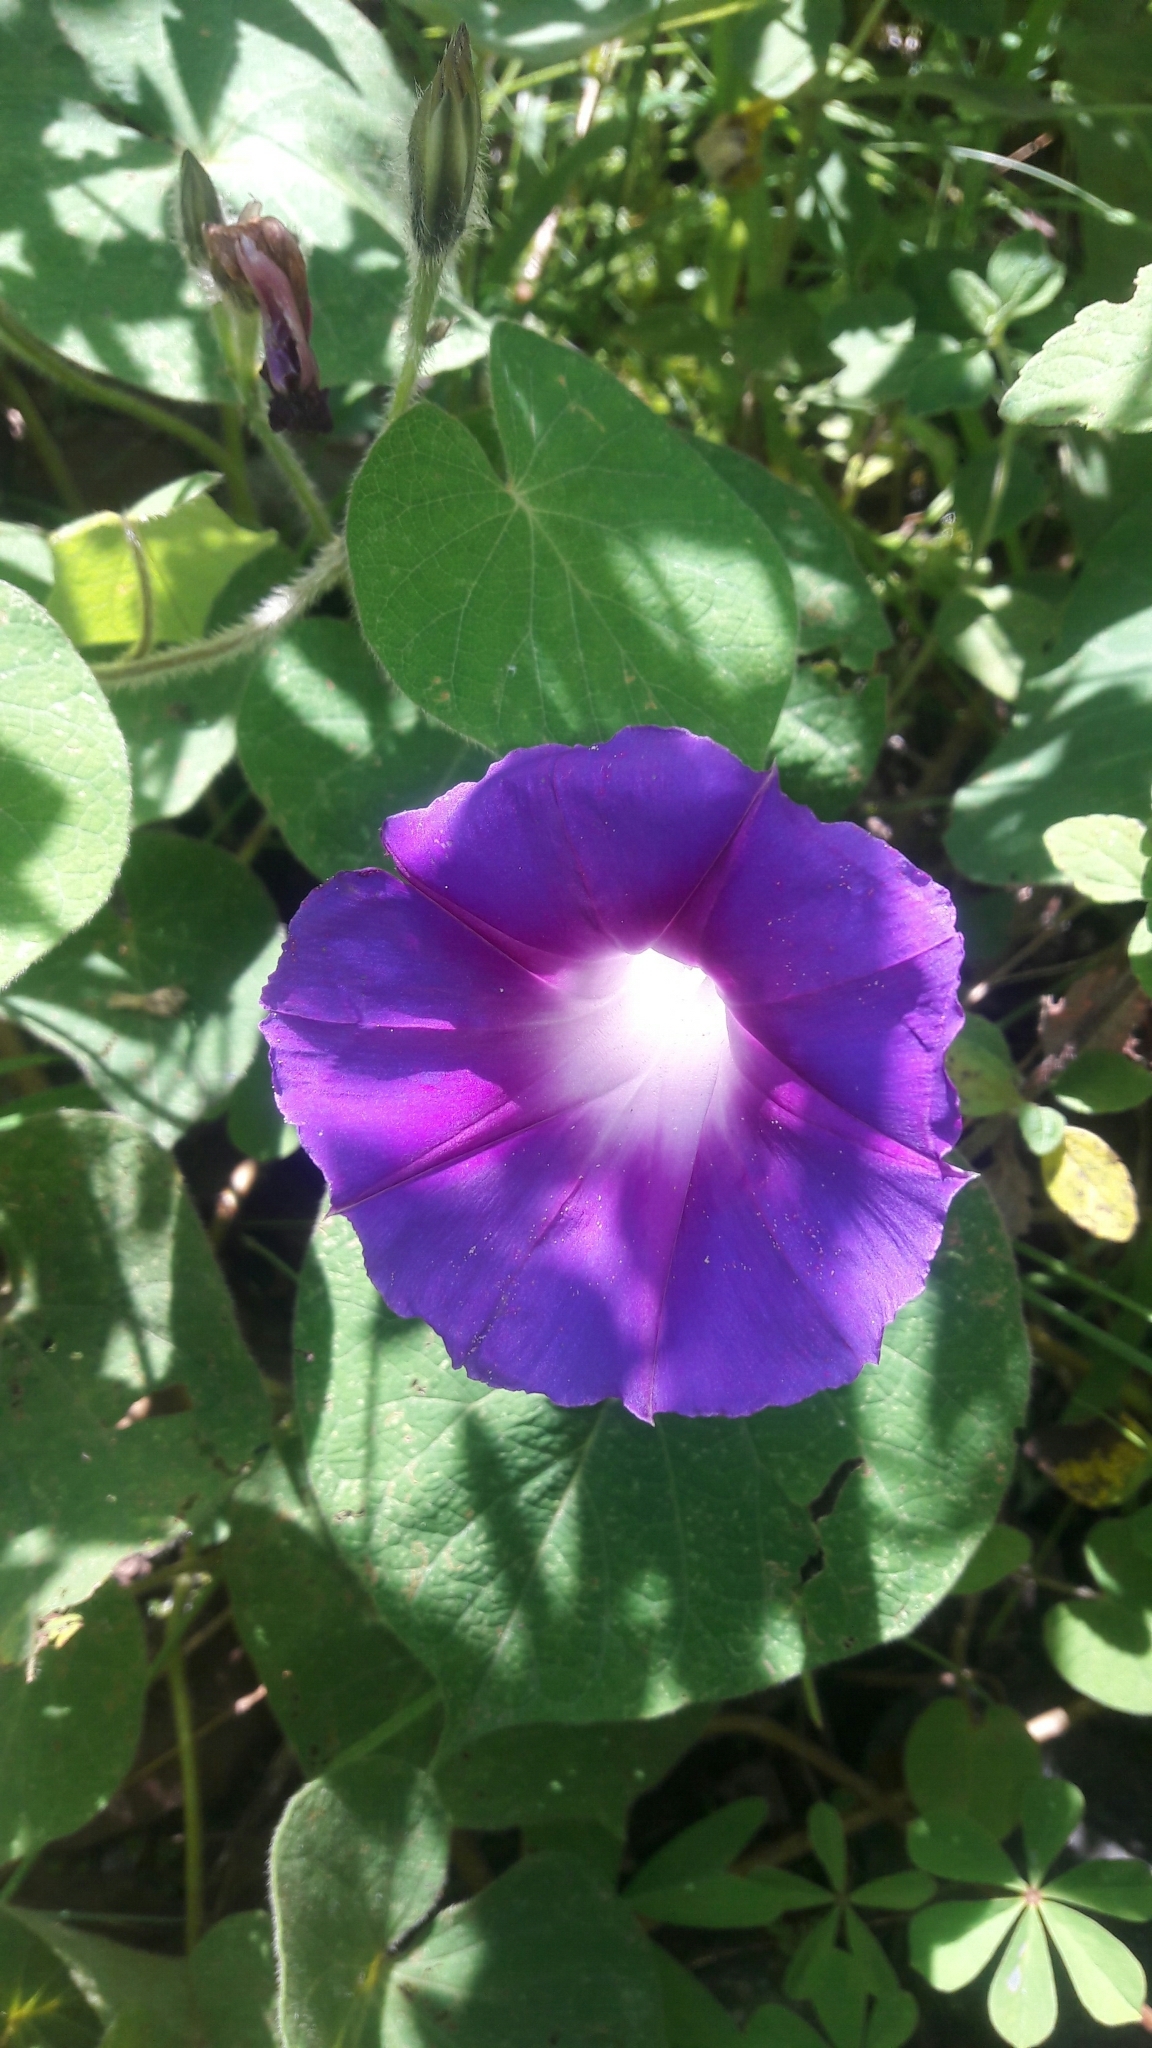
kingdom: Plantae
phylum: Tracheophyta
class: Magnoliopsida
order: Solanales
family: Convolvulaceae
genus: Ipomoea
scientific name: Ipomoea purpurea
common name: Common morning-glory
